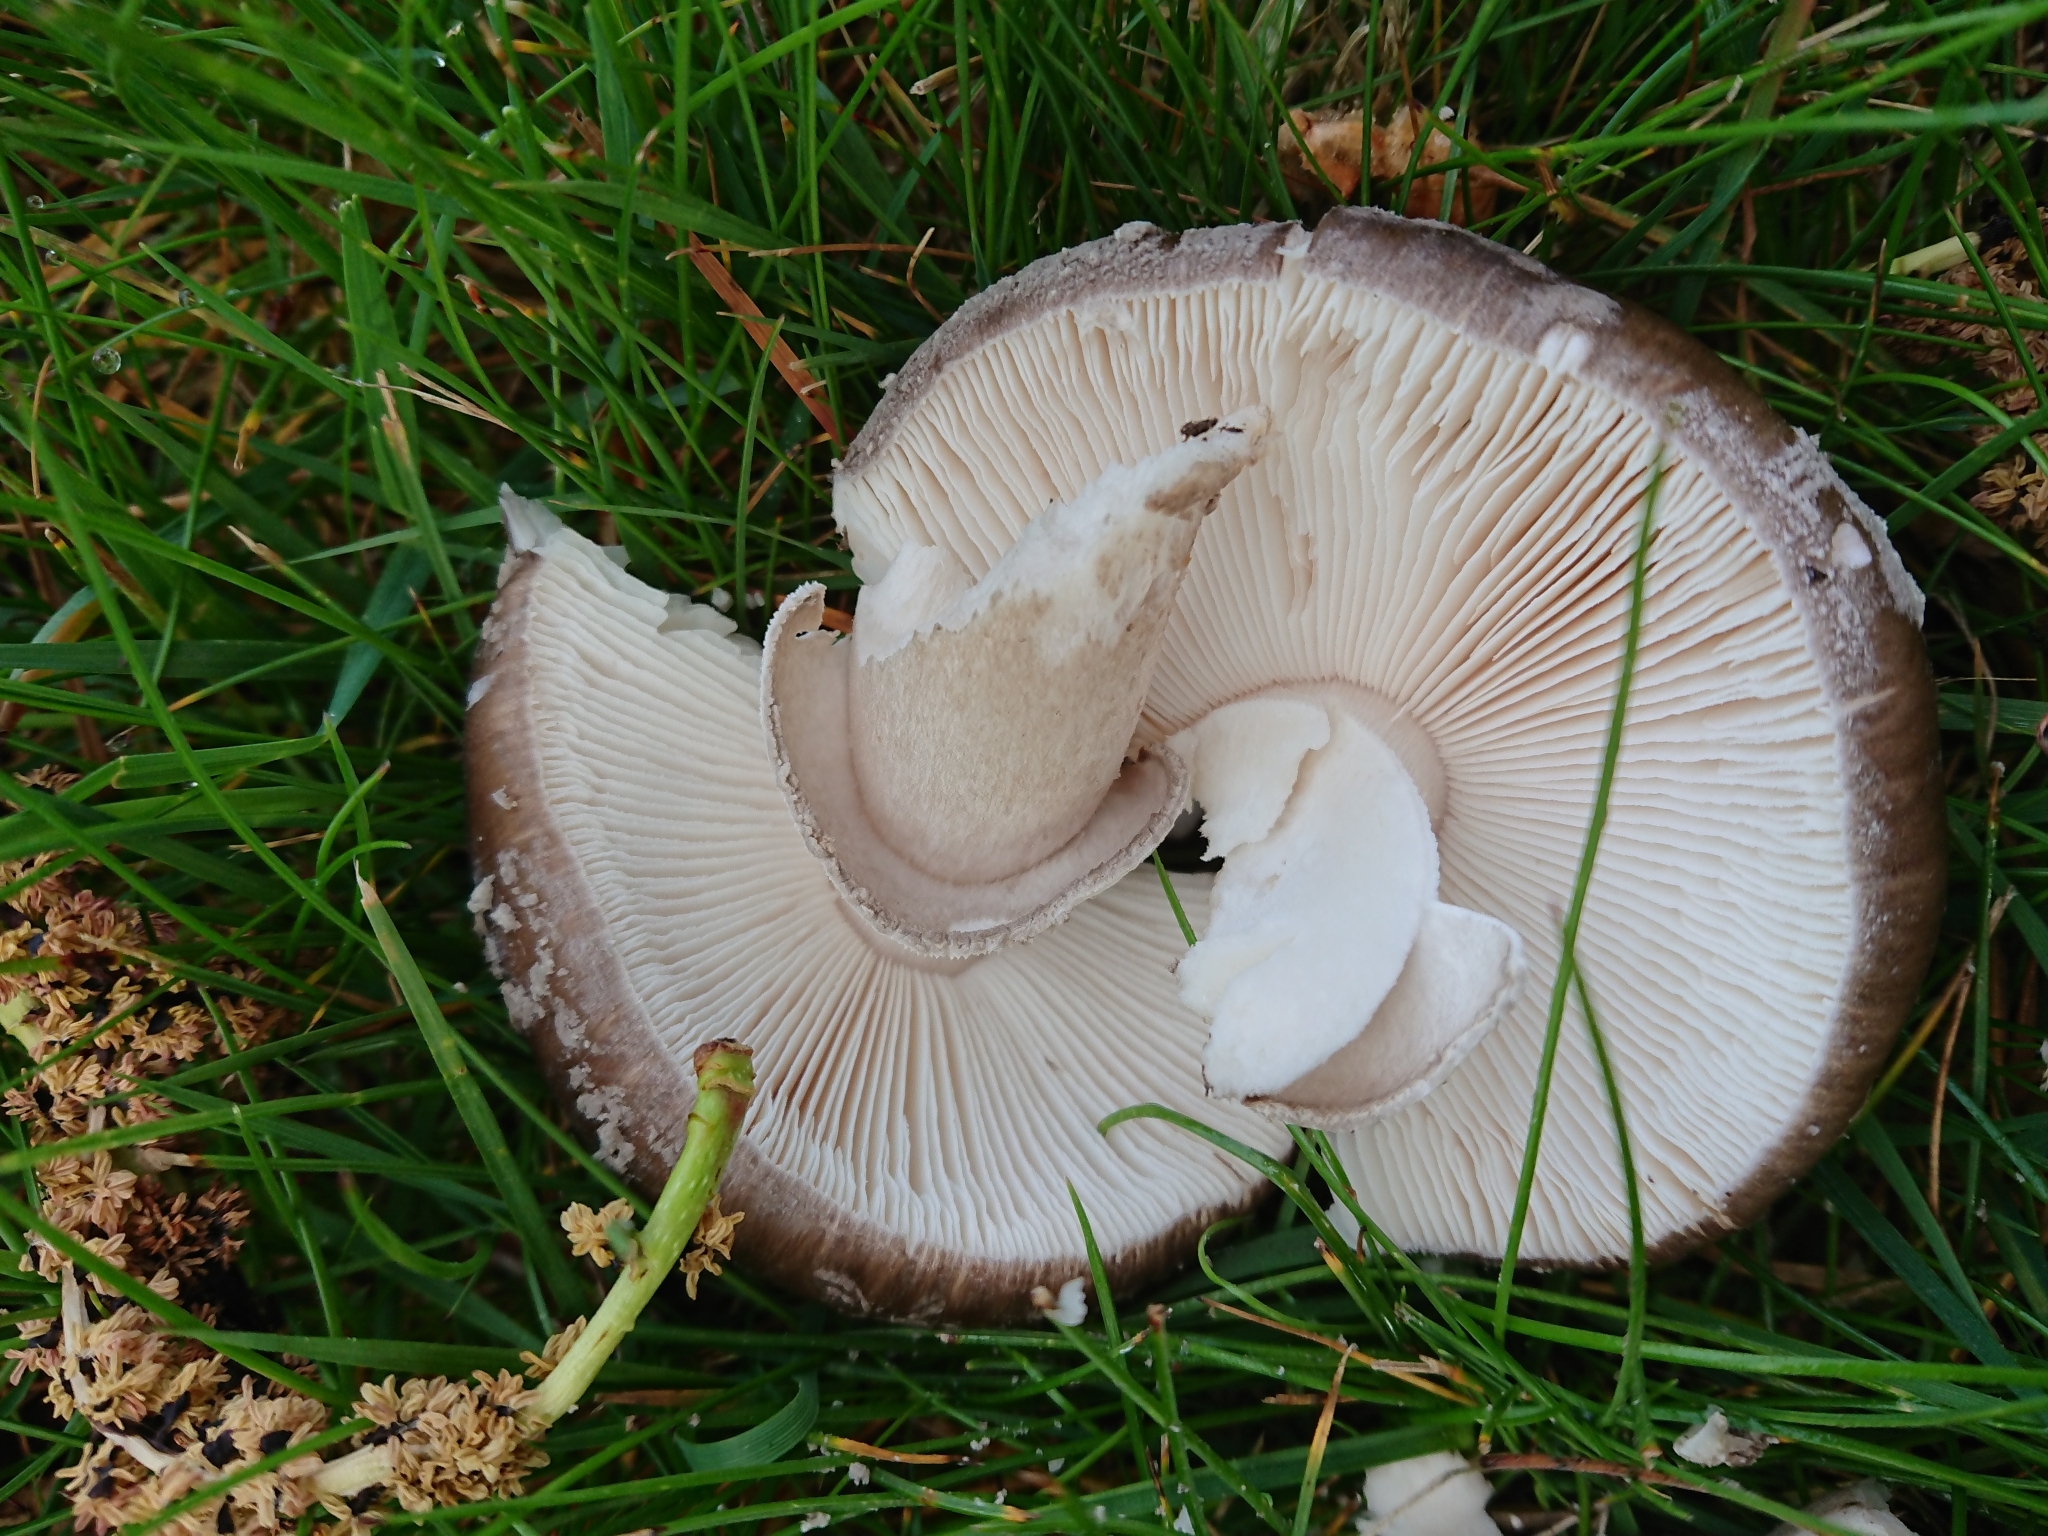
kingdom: Fungi
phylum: Basidiomycota
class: Agaricomycetes
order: Agaricales
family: Amanitaceae
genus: Amanita
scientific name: Amanita excelsa
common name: European false blusher
